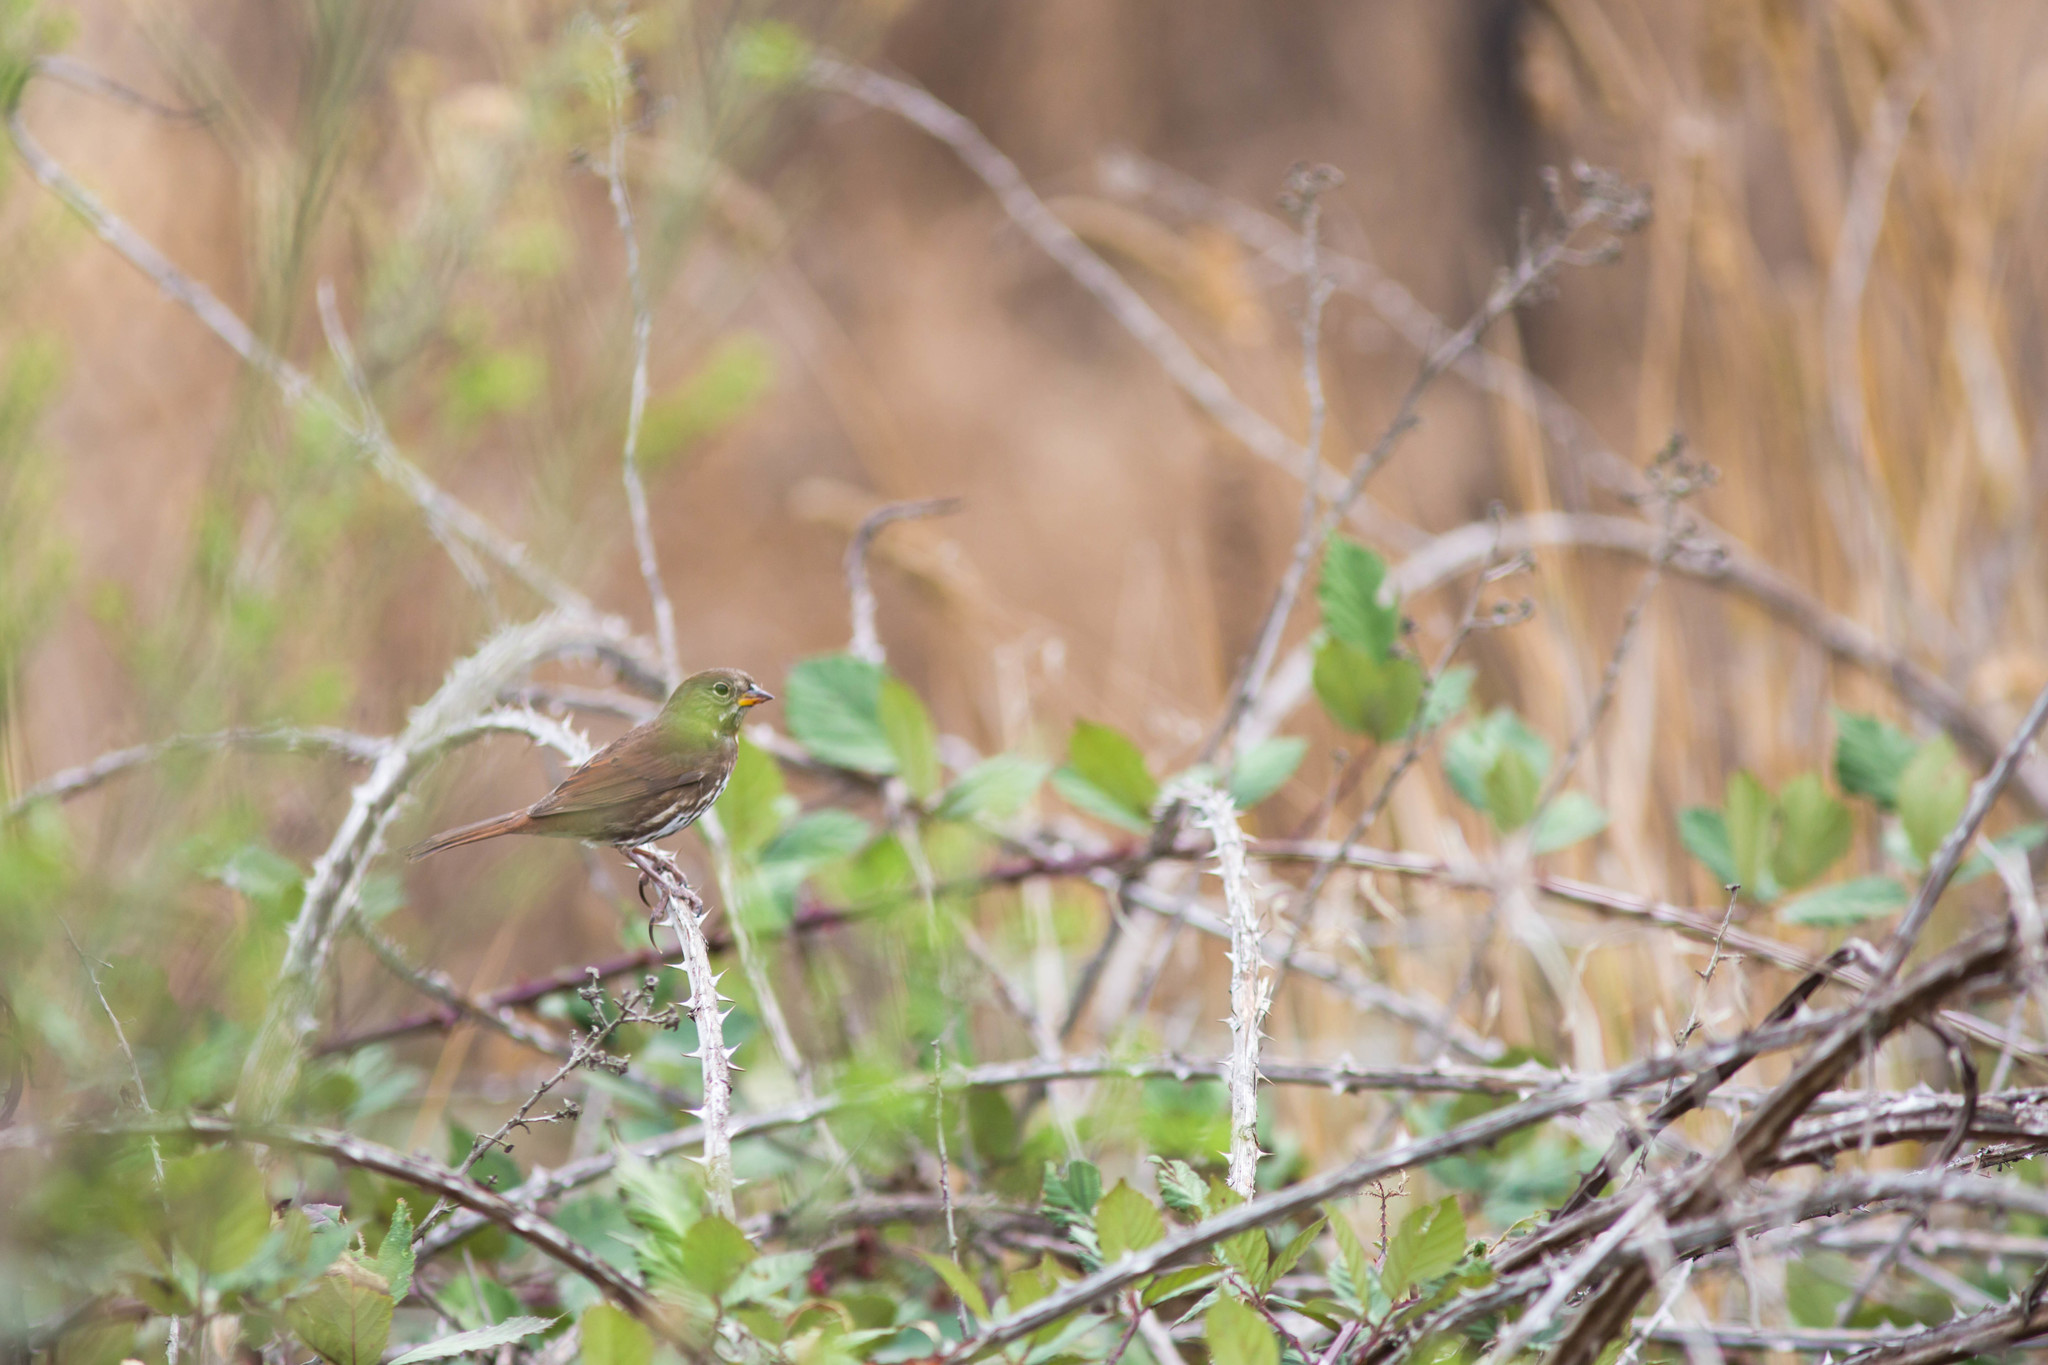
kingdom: Animalia
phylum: Chordata
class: Aves
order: Passeriformes
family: Passerellidae
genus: Passerella
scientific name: Passerella iliaca
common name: Fox sparrow
